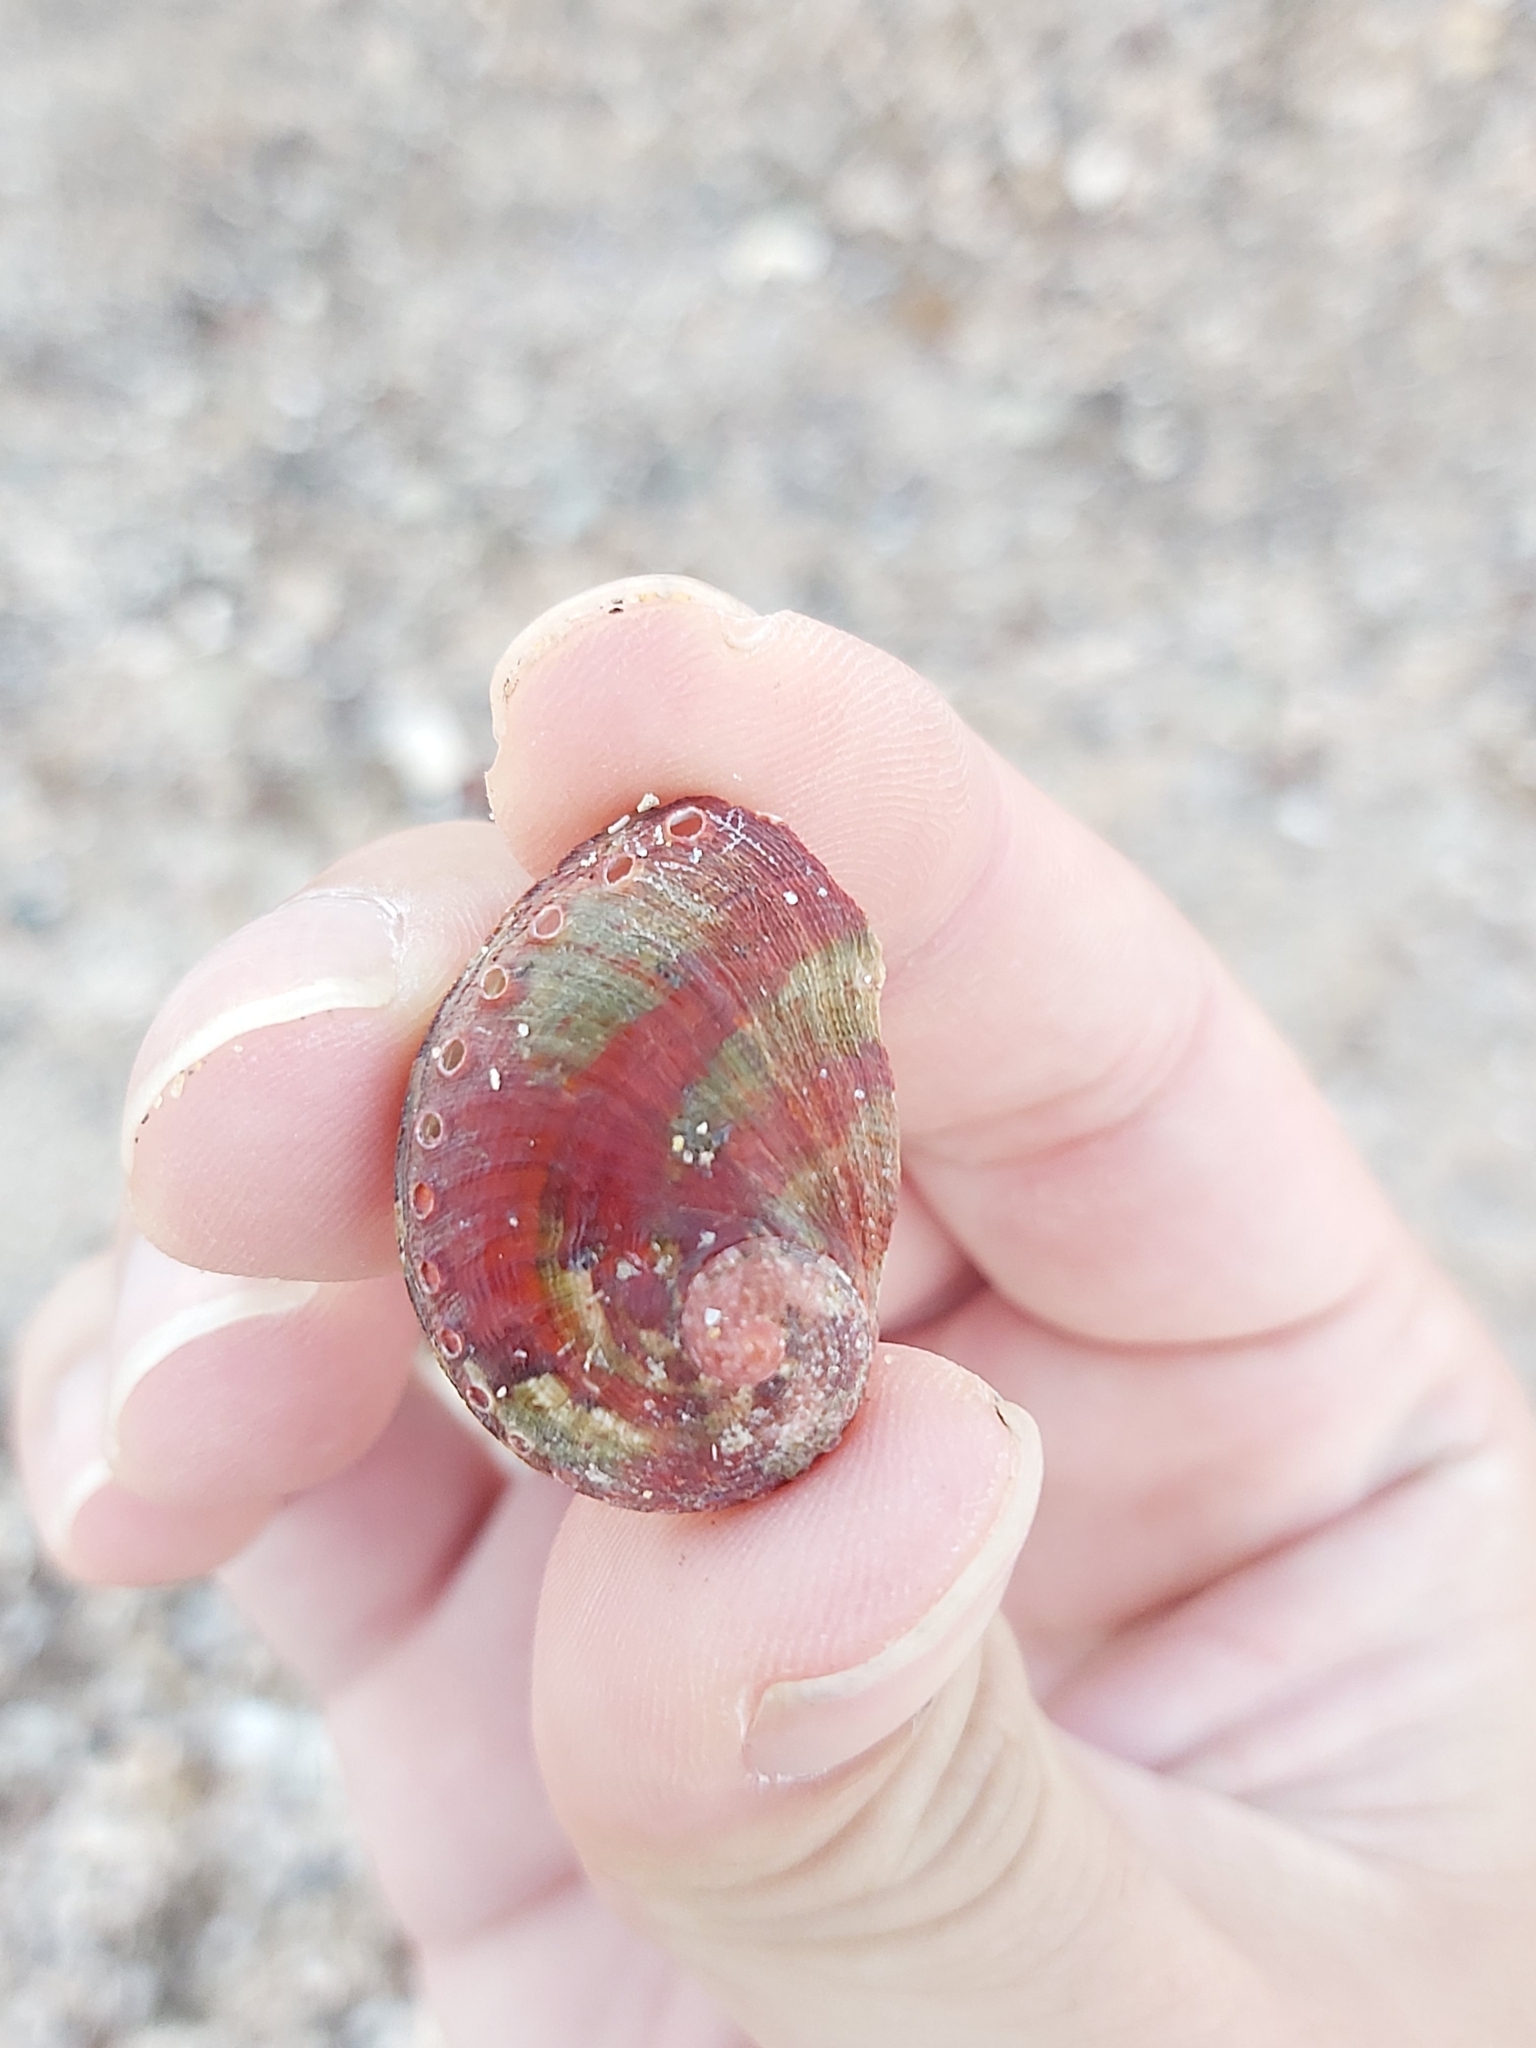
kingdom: Animalia
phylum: Mollusca
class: Gastropoda
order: Lepetellida
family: Haliotidae
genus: Haliotis
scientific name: Haliotis coccoradiata
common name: Reddish-rayed abalone
